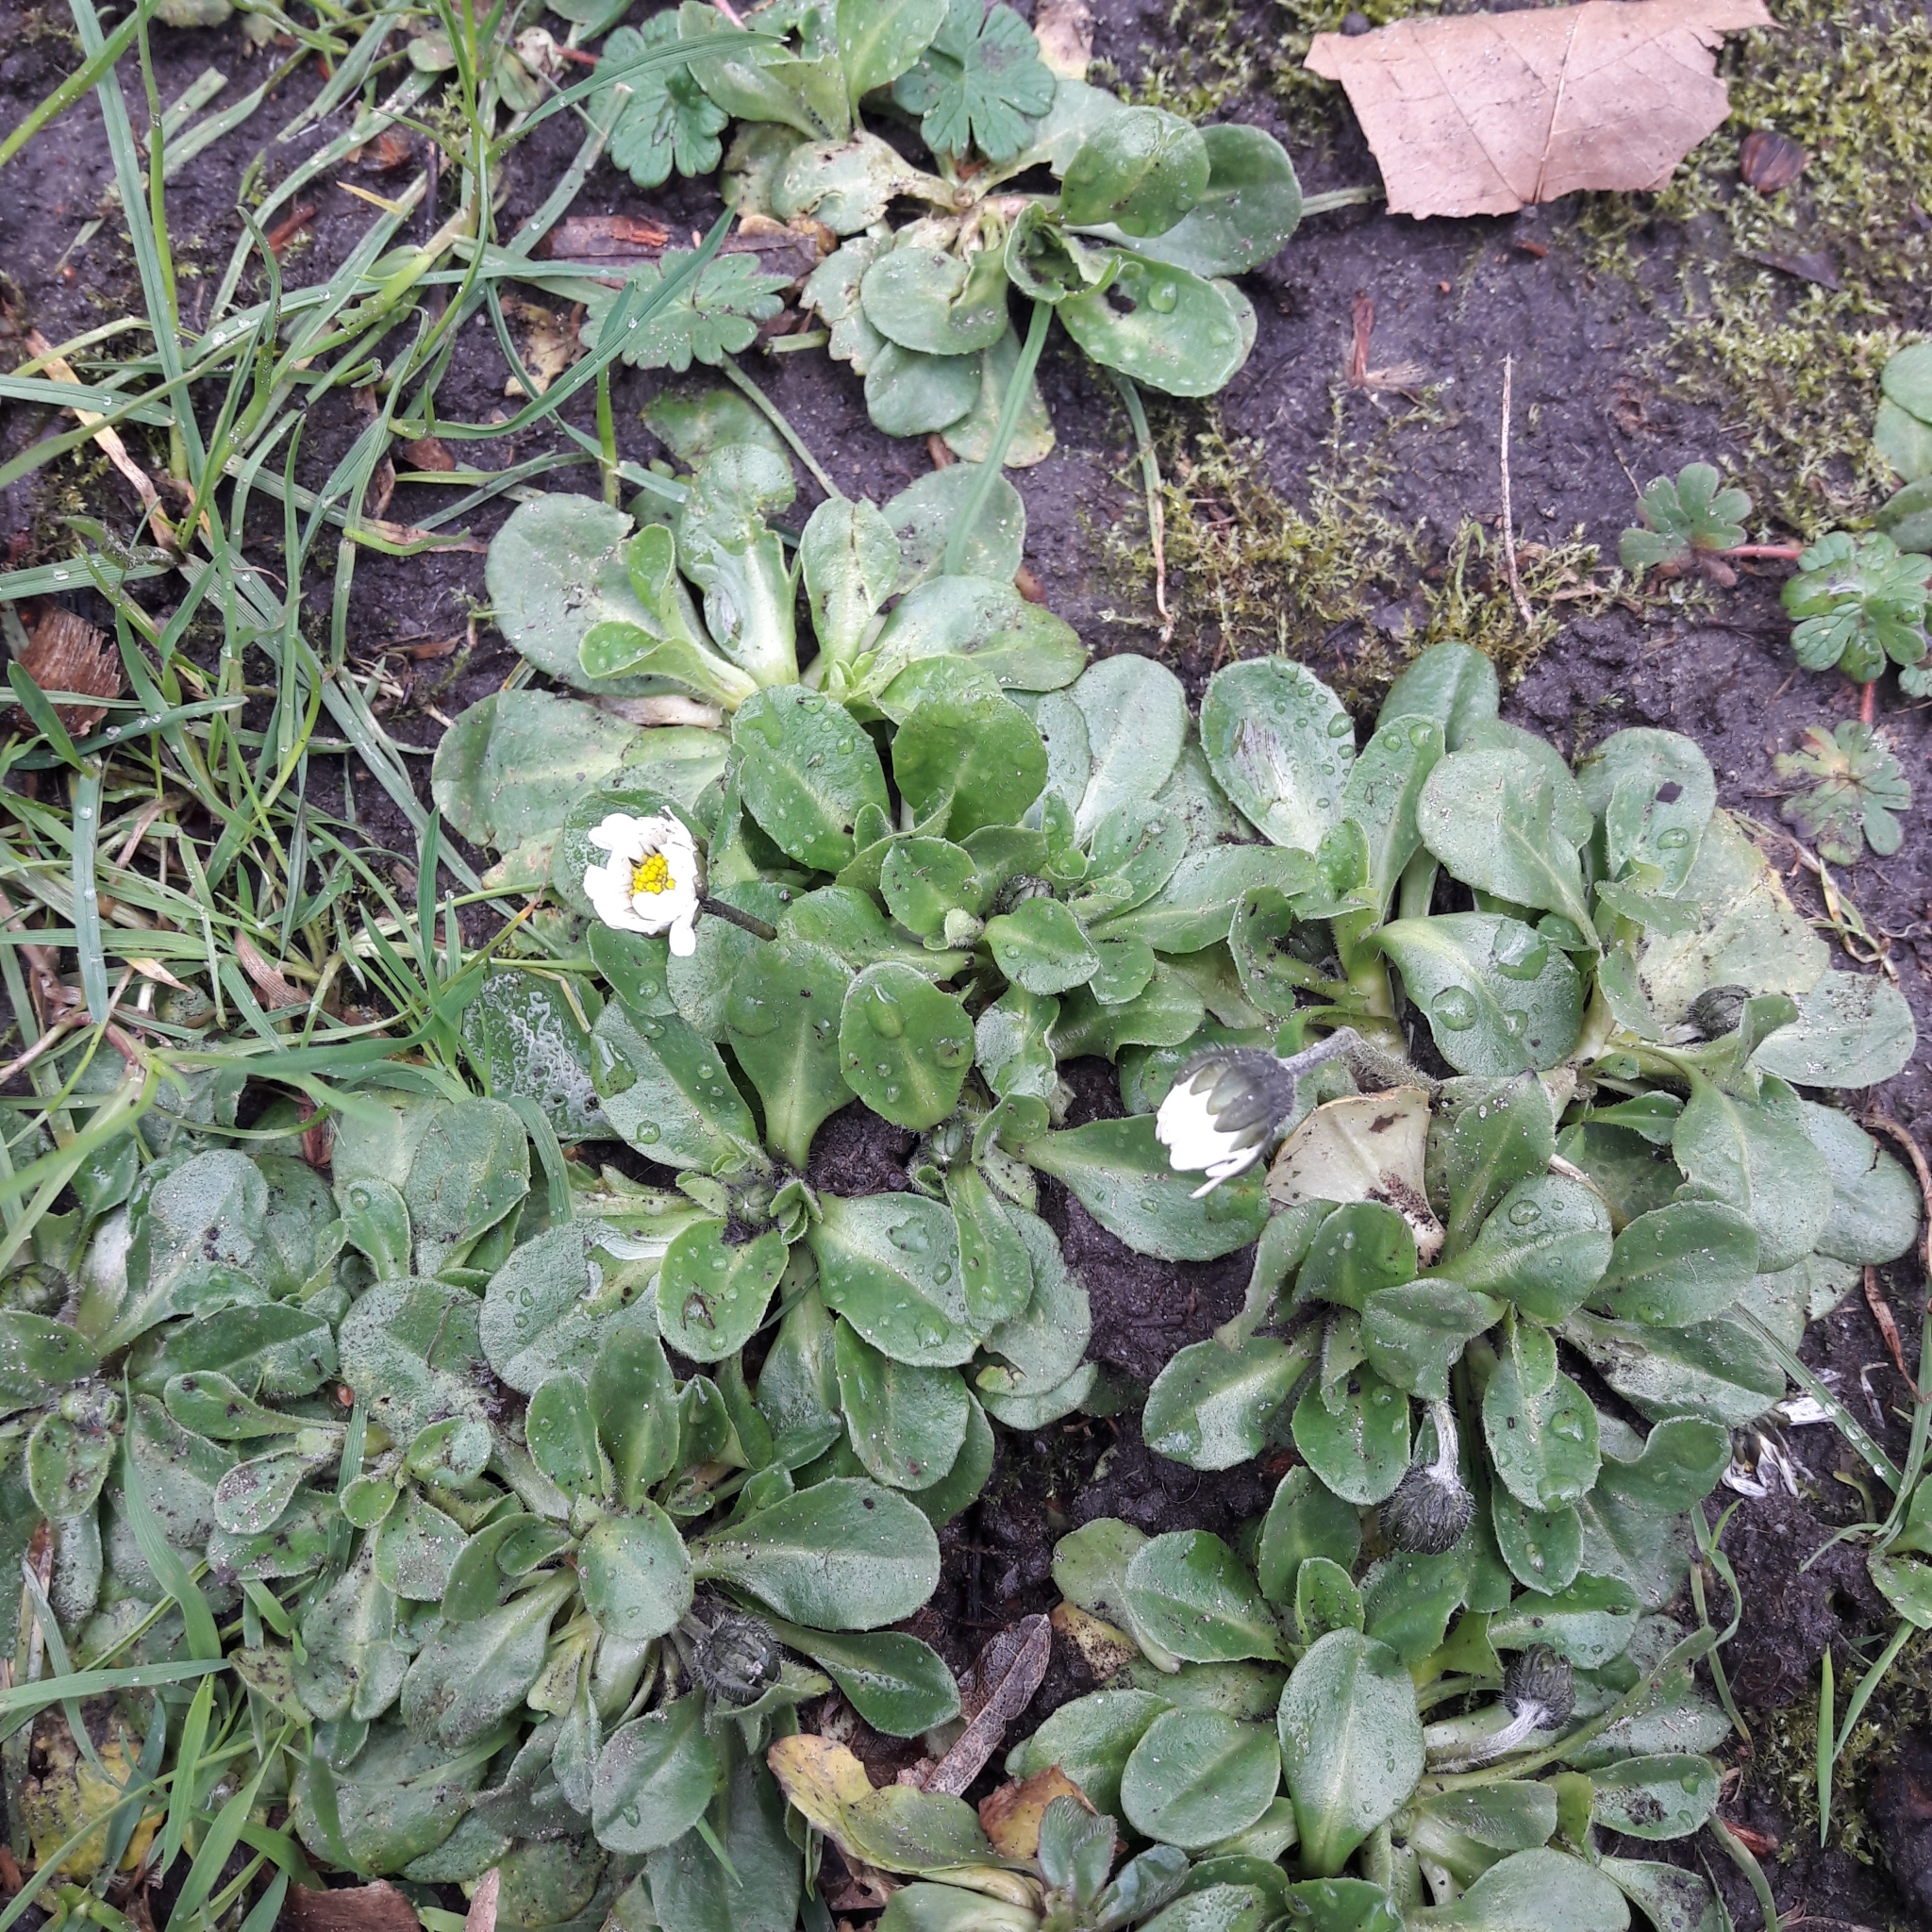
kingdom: Plantae
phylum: Tracheophyta
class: Magnoliopsida
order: Asterales
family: Asteraceae
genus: Bellis
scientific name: Bellis perennis
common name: Lawndaisy
